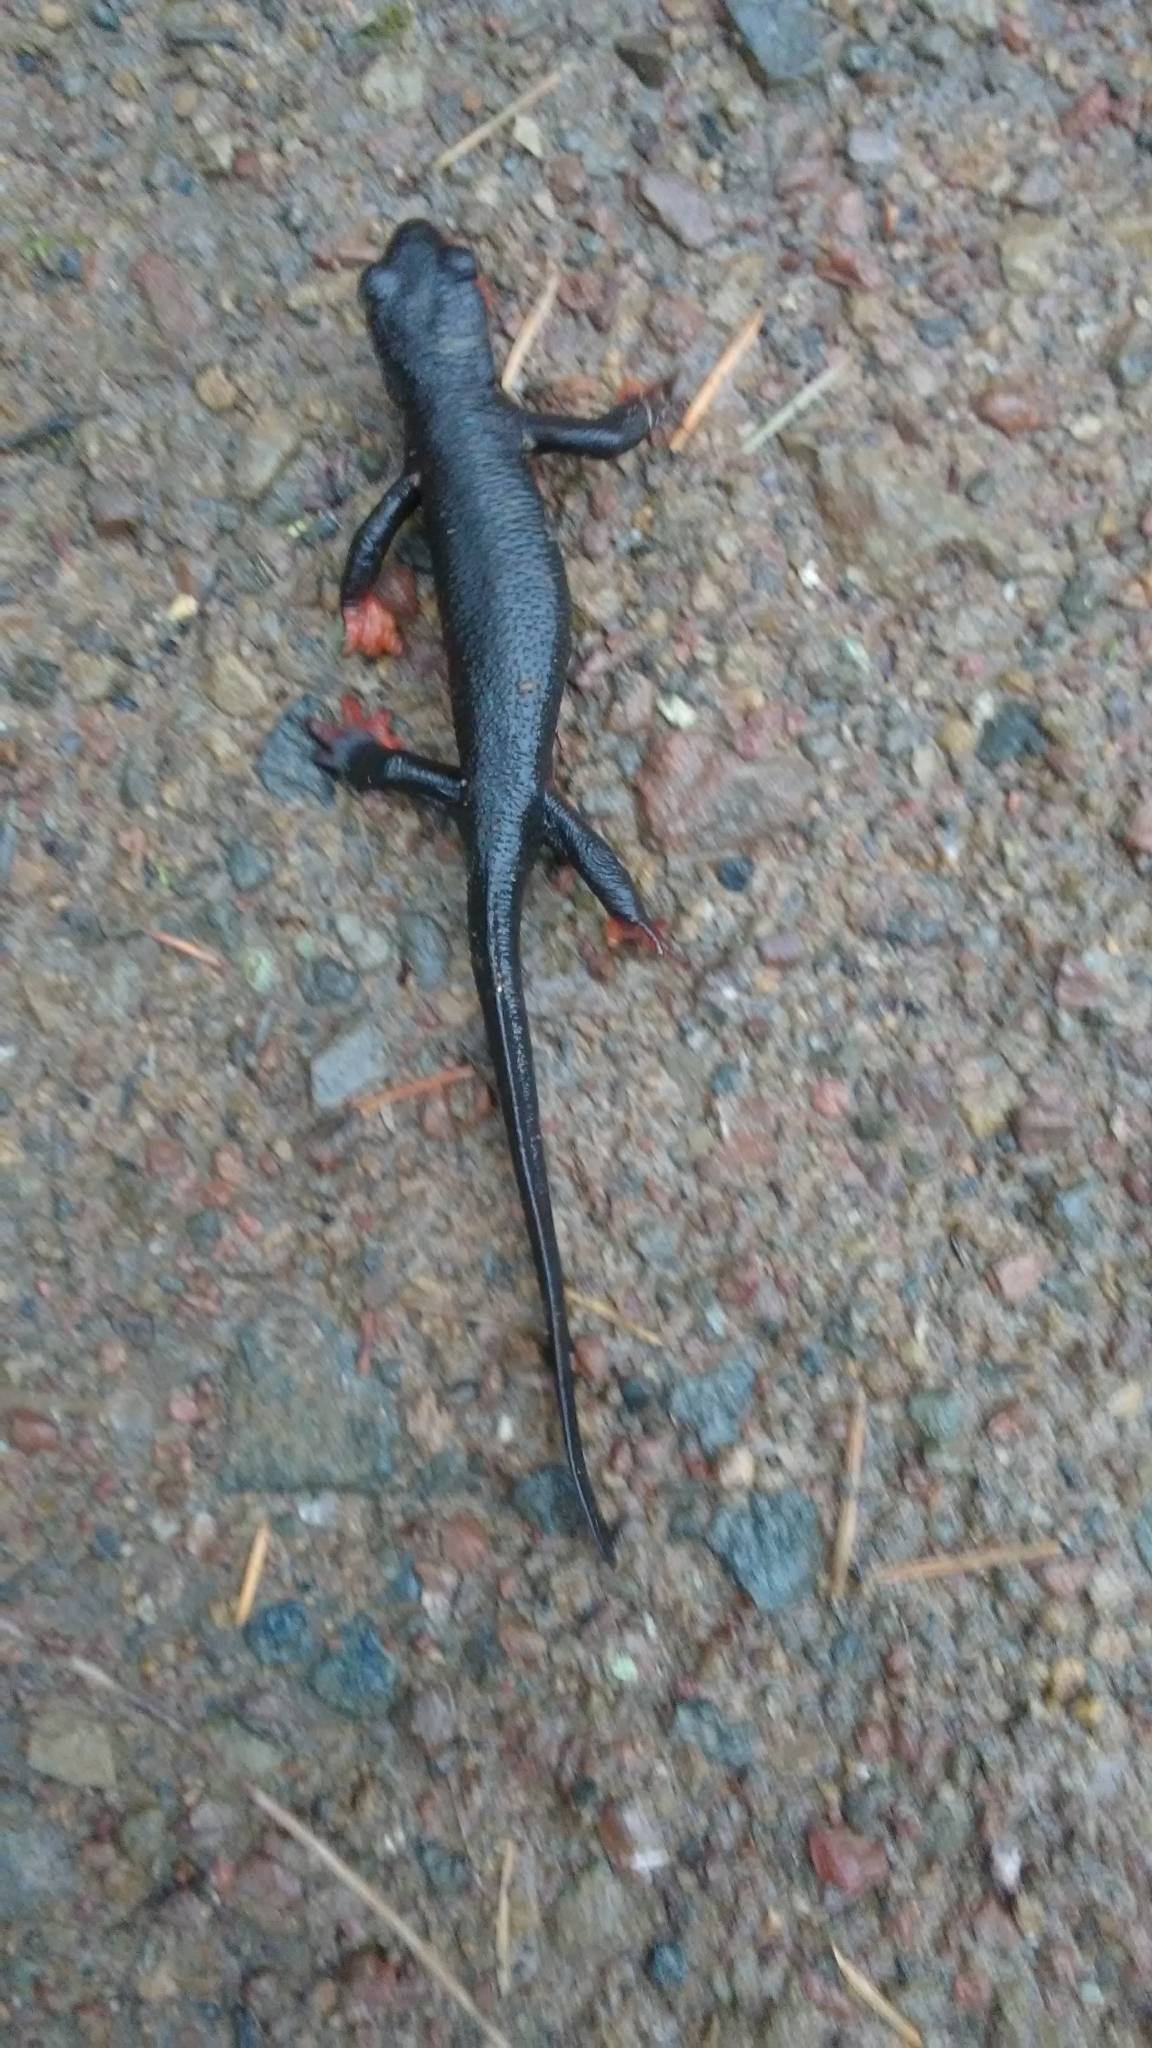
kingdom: Animalia
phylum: Chordata
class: Amphibia
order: Caudata
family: Salamandridae
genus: Taricha
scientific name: Taricha rivularis
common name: Red-bellied newt
